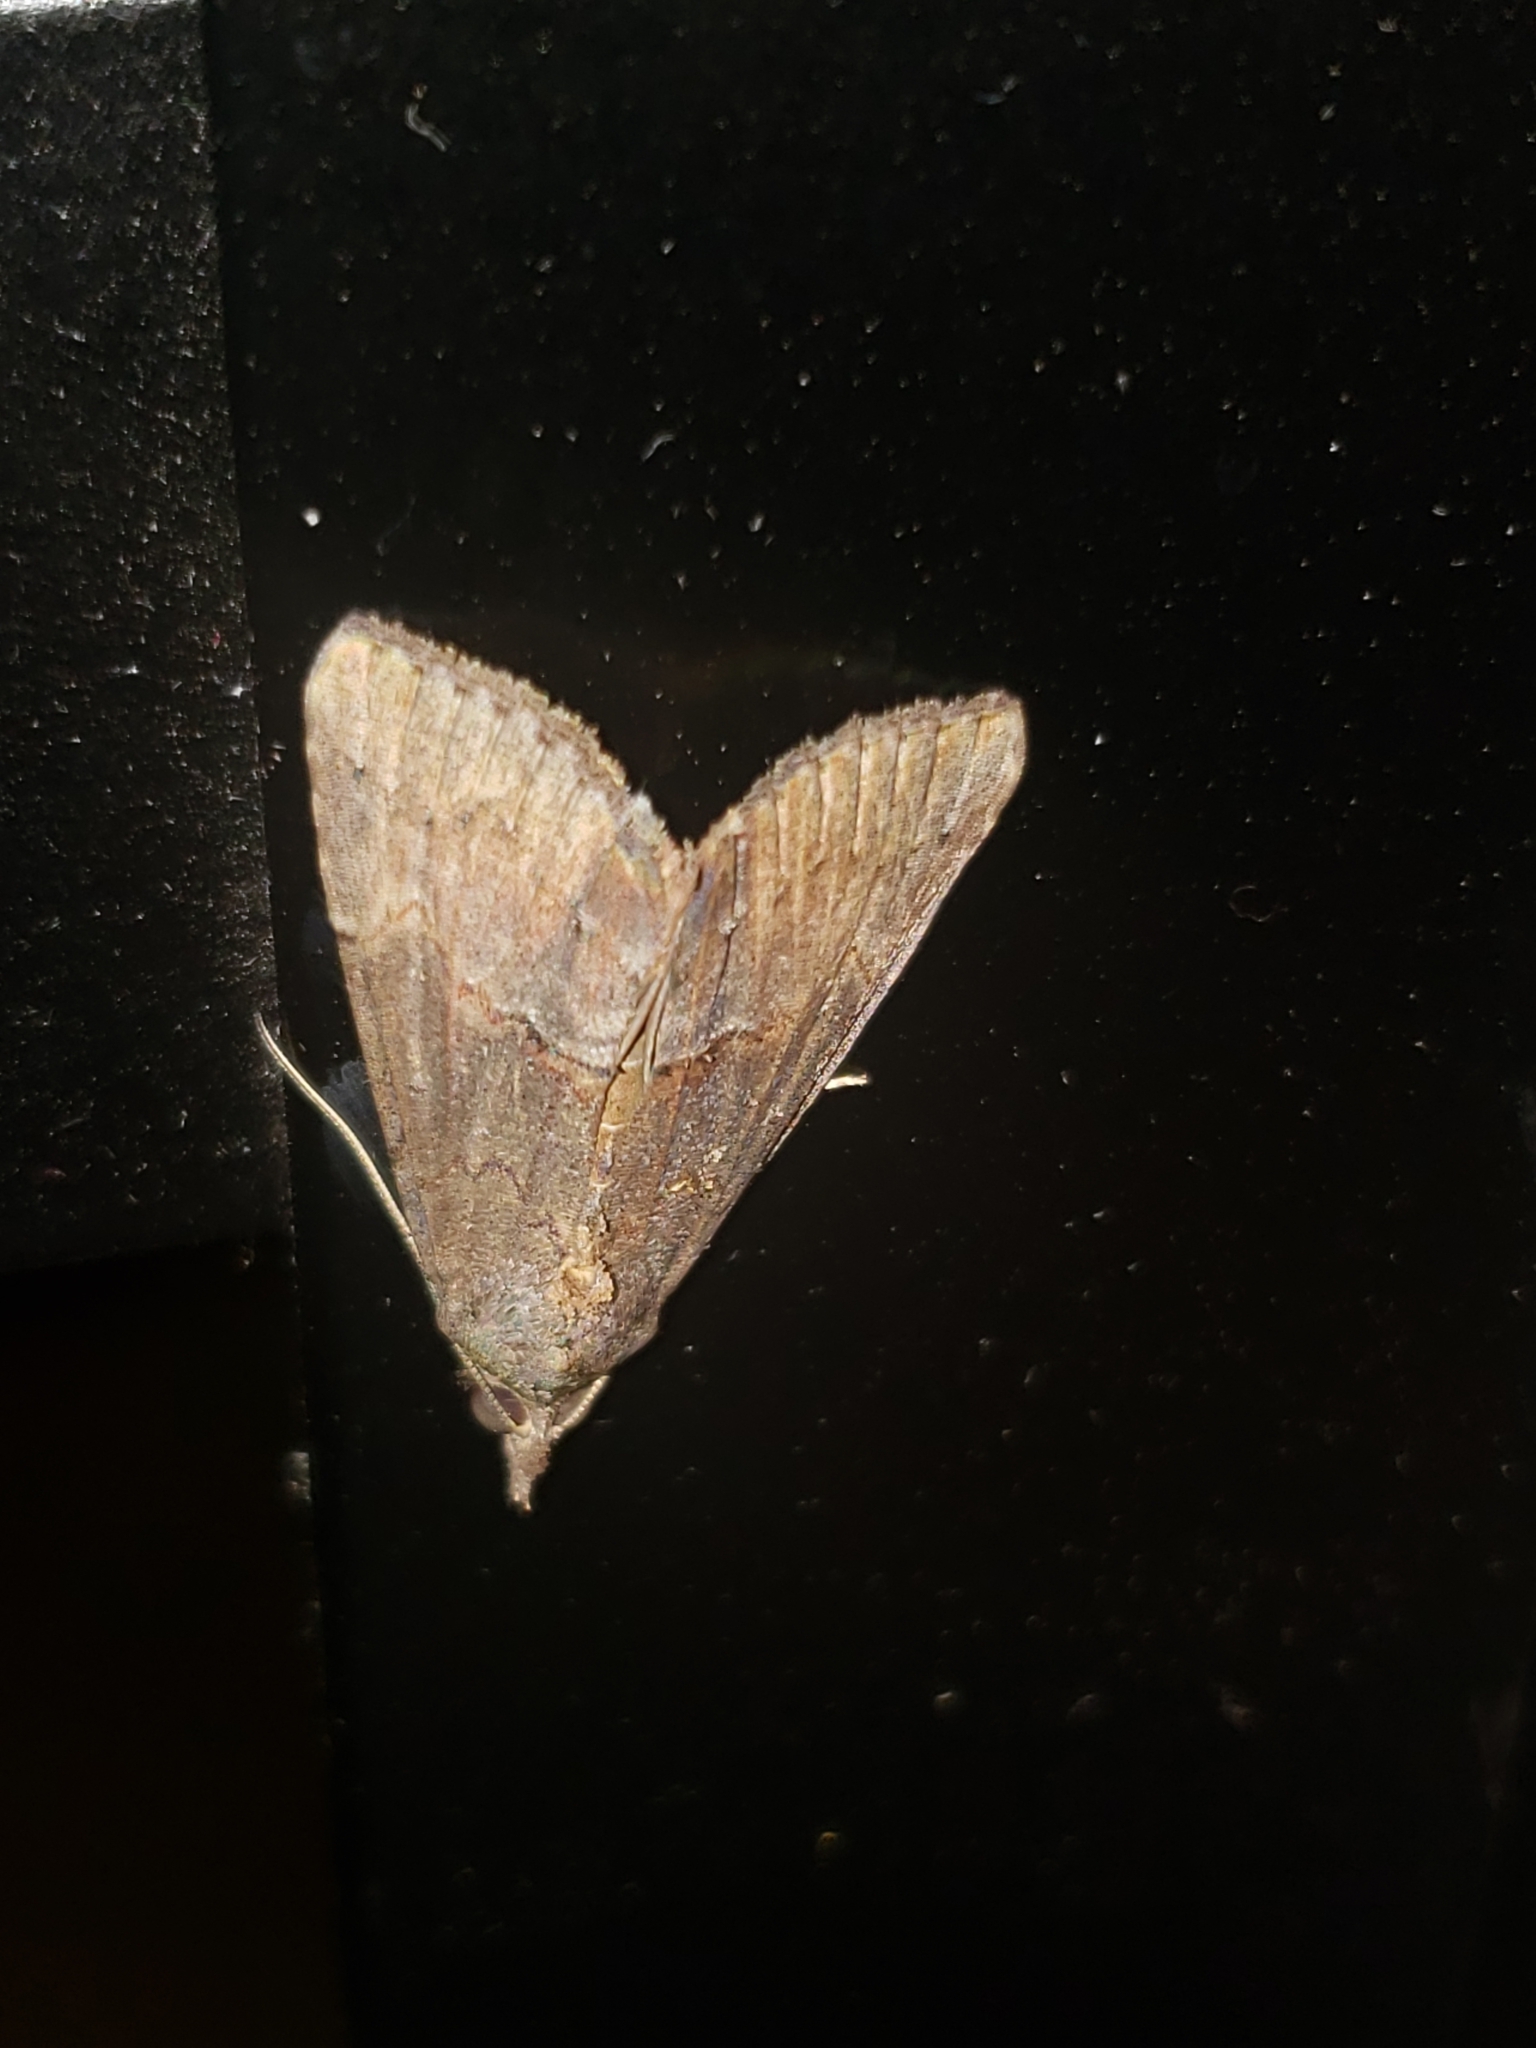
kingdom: Animalia
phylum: Arthropoda
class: Insecta
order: Lepidoptera
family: Erebidae
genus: Hypena
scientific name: Hypena scabra
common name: Green cloverworm
